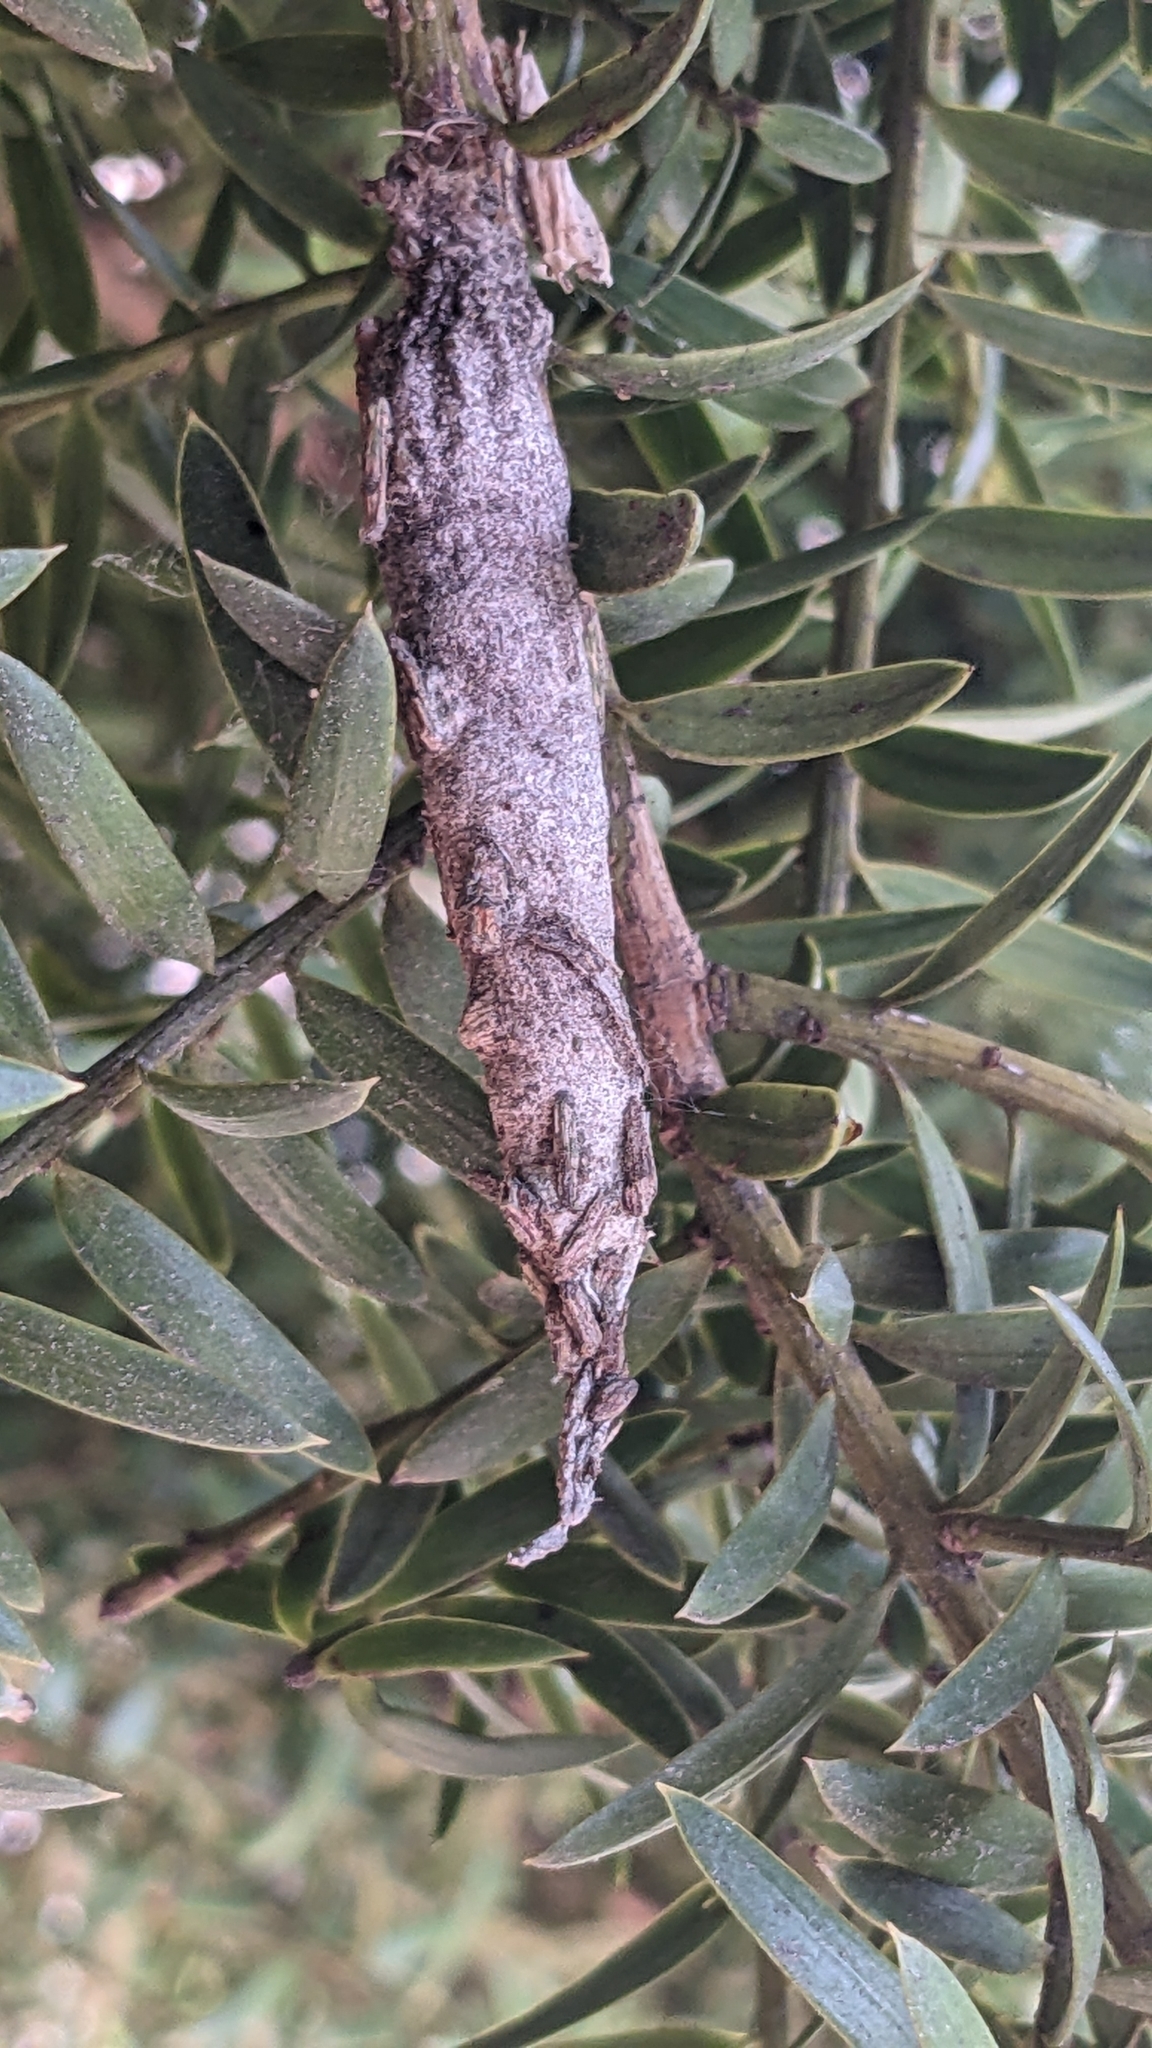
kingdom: Animalia
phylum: Arthropoda
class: Insecta
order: Lepidoptera
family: Psychidae
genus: Liothula
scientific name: Liothula omnivora
